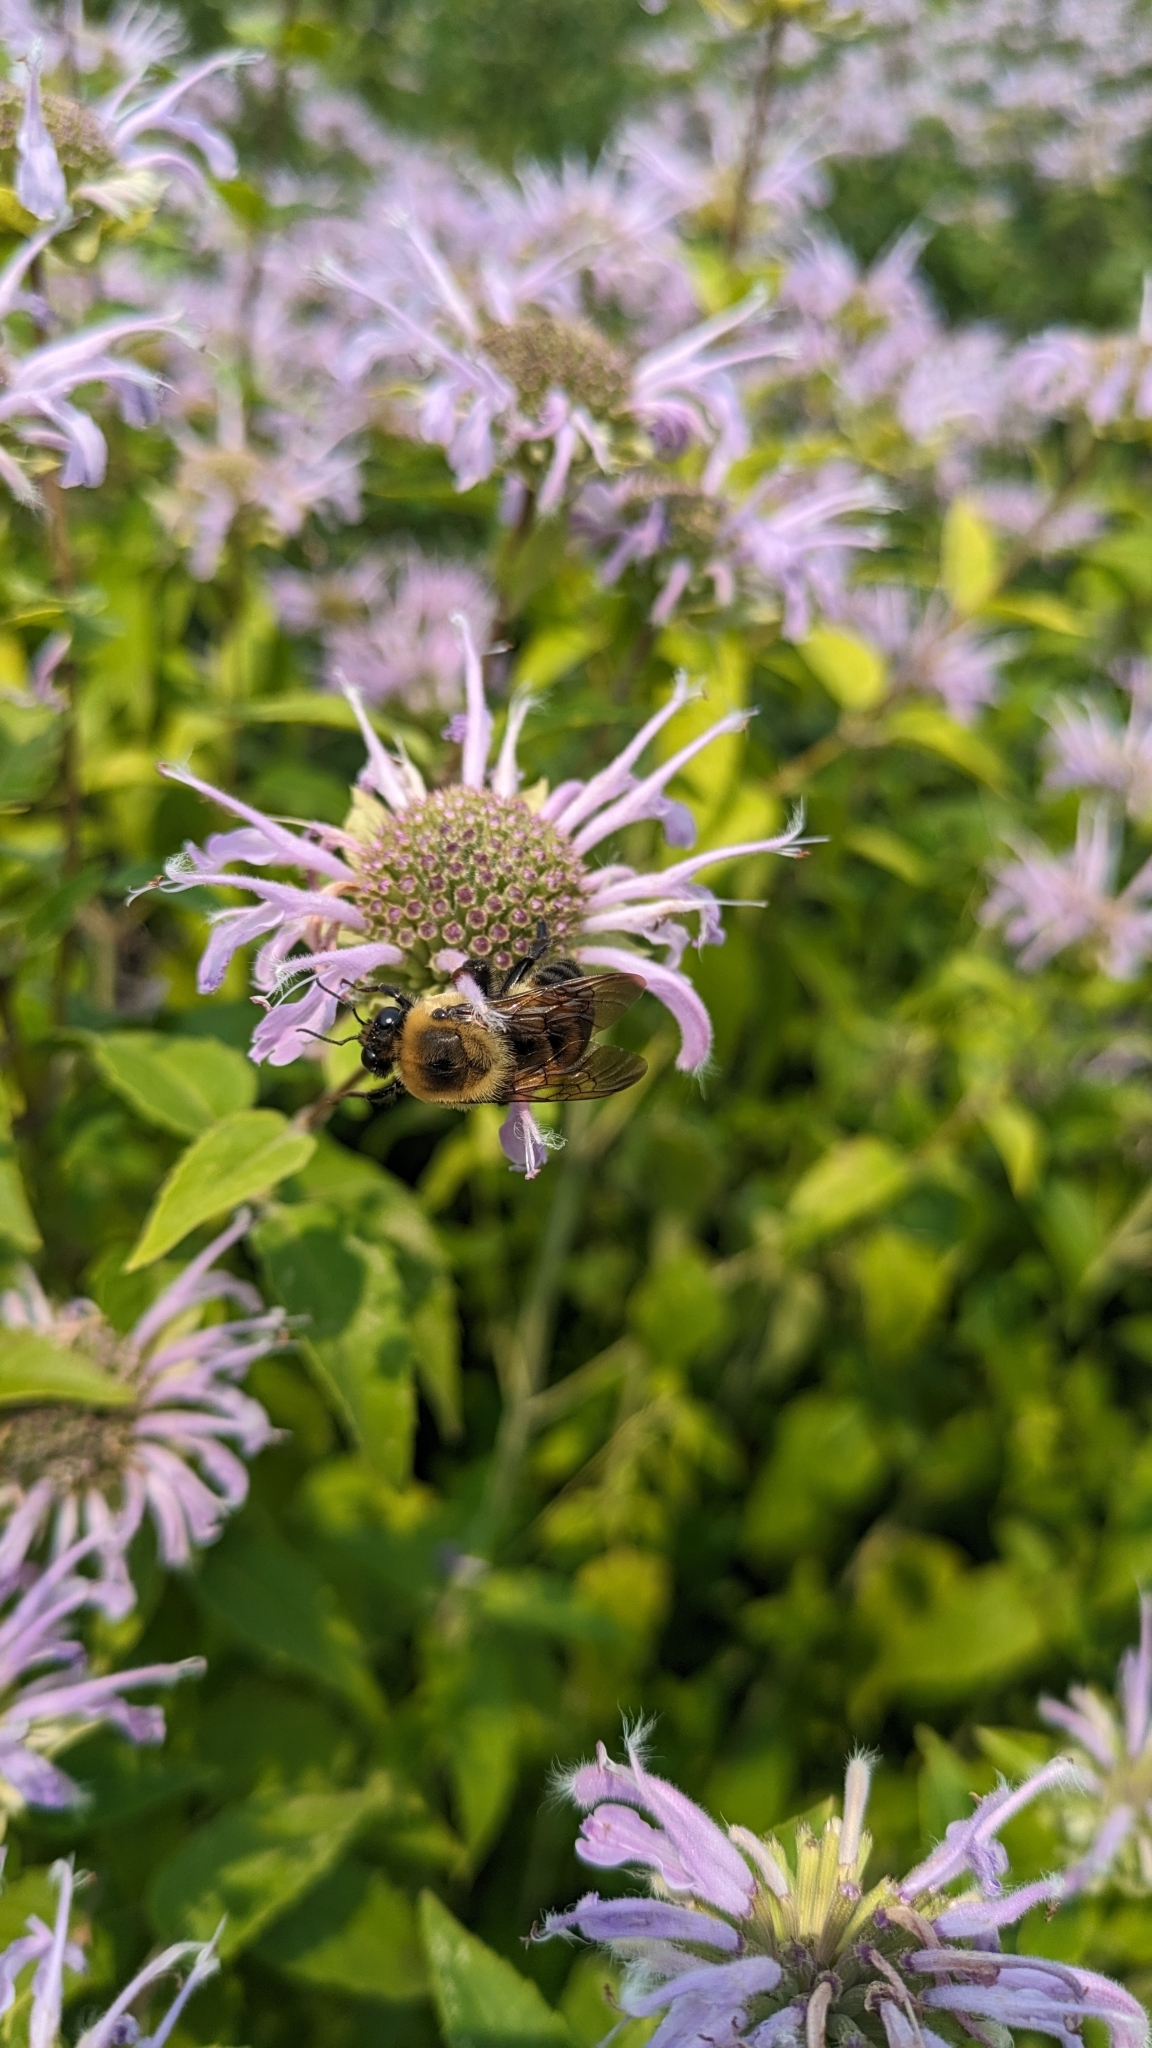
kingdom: Animalia
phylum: Arthropoda
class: Insecta
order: Hymenoptera
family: Apidae
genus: Bombus
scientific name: Bombus griseocollis
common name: Brown-belted bumble bee
